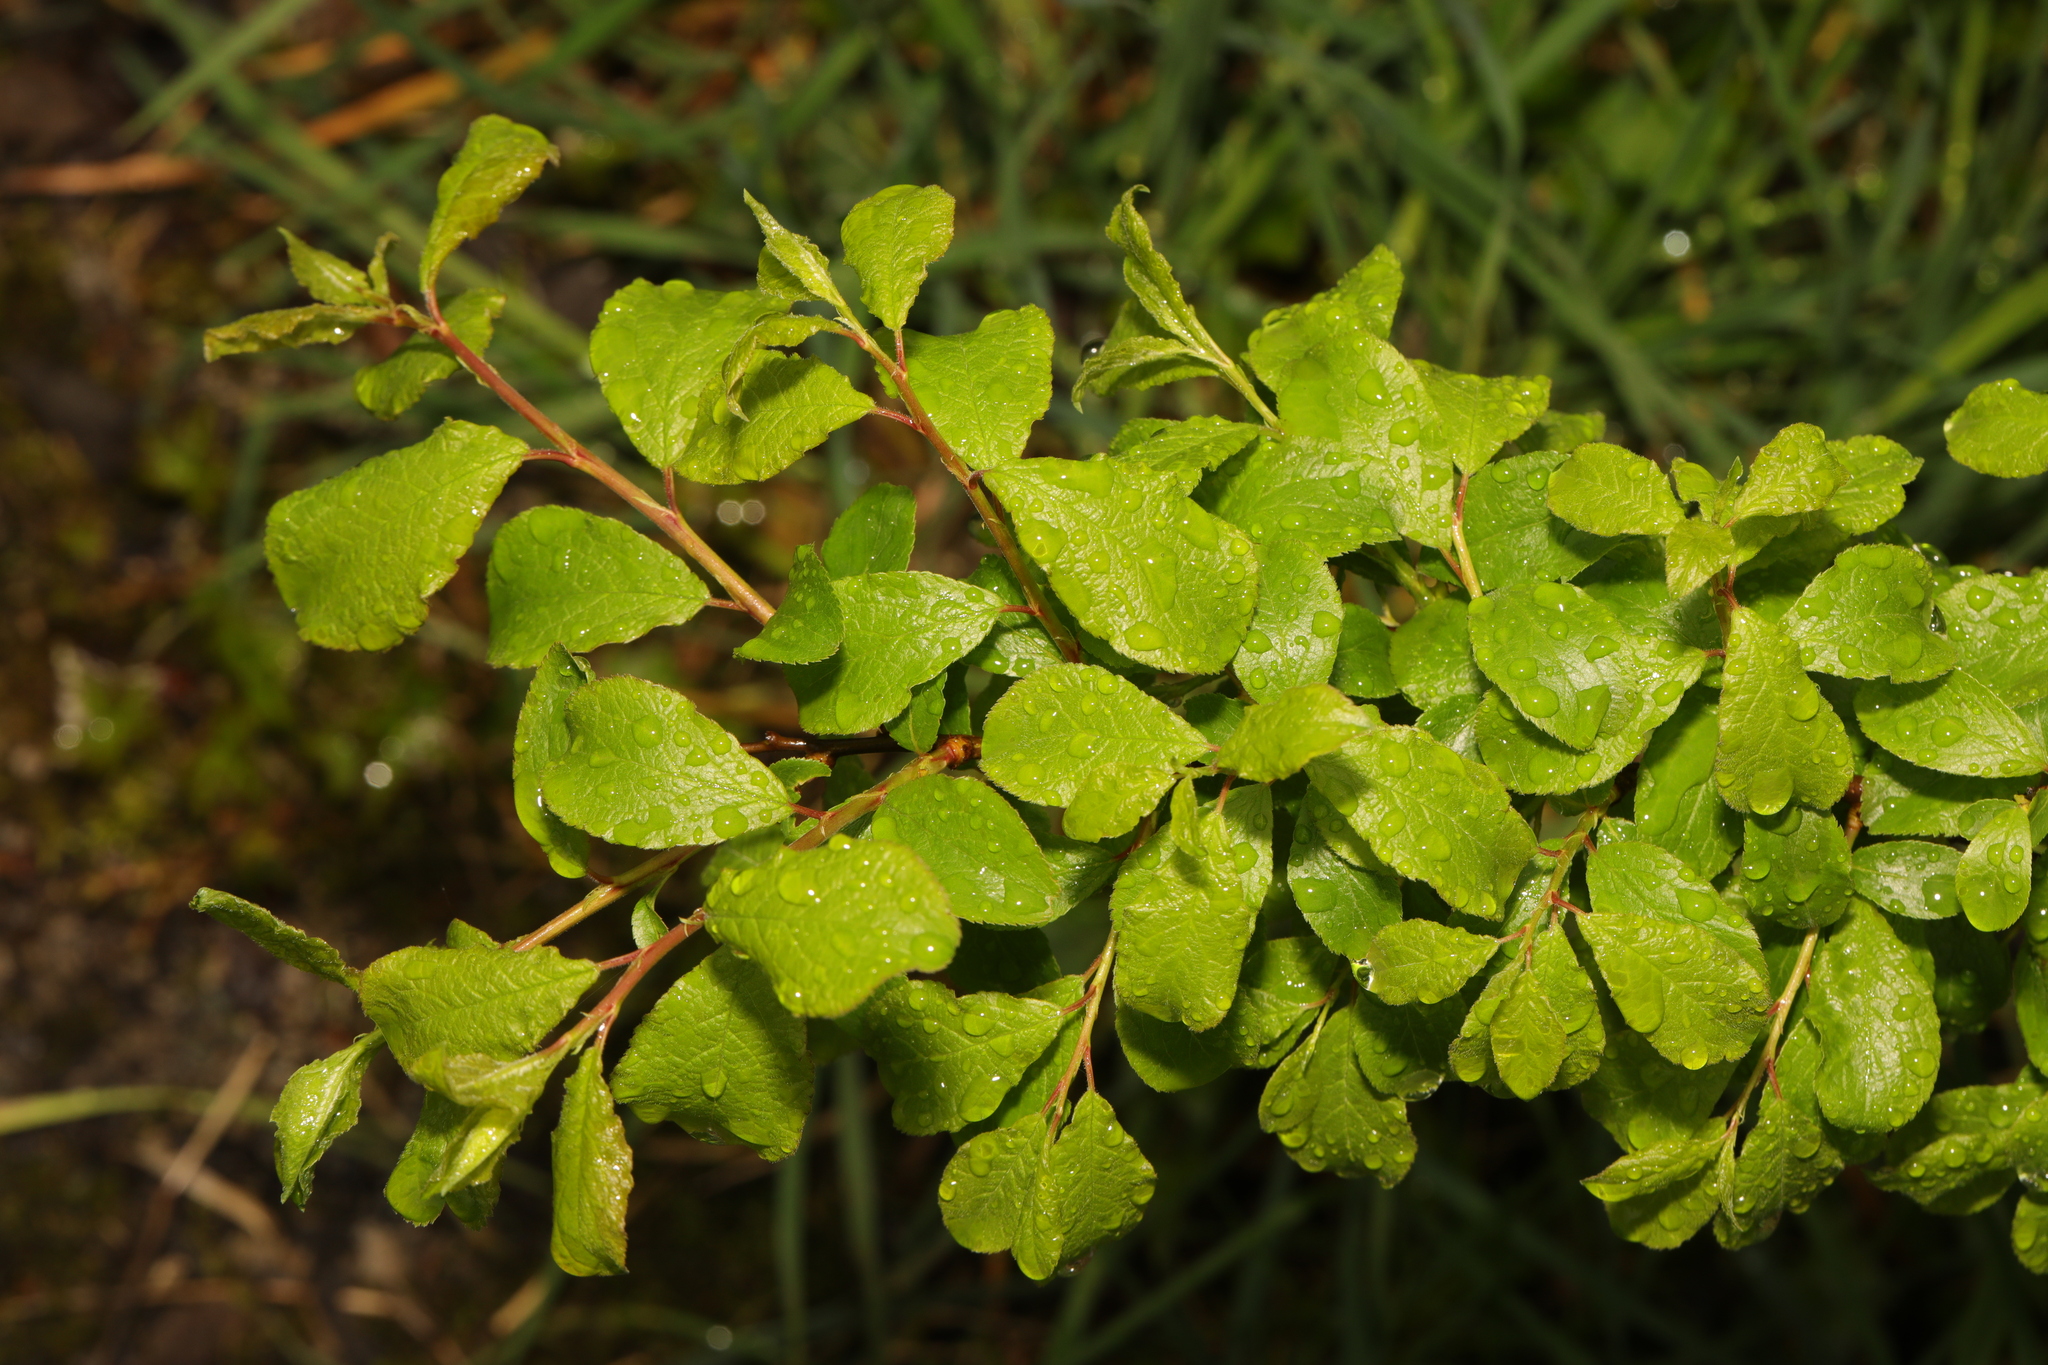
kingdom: Plantae
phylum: Tracheophyta
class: Magnoliopsida
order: Rosales
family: Rosaceae
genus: Prunus
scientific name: Prunus spinosa
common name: Blackthorn
